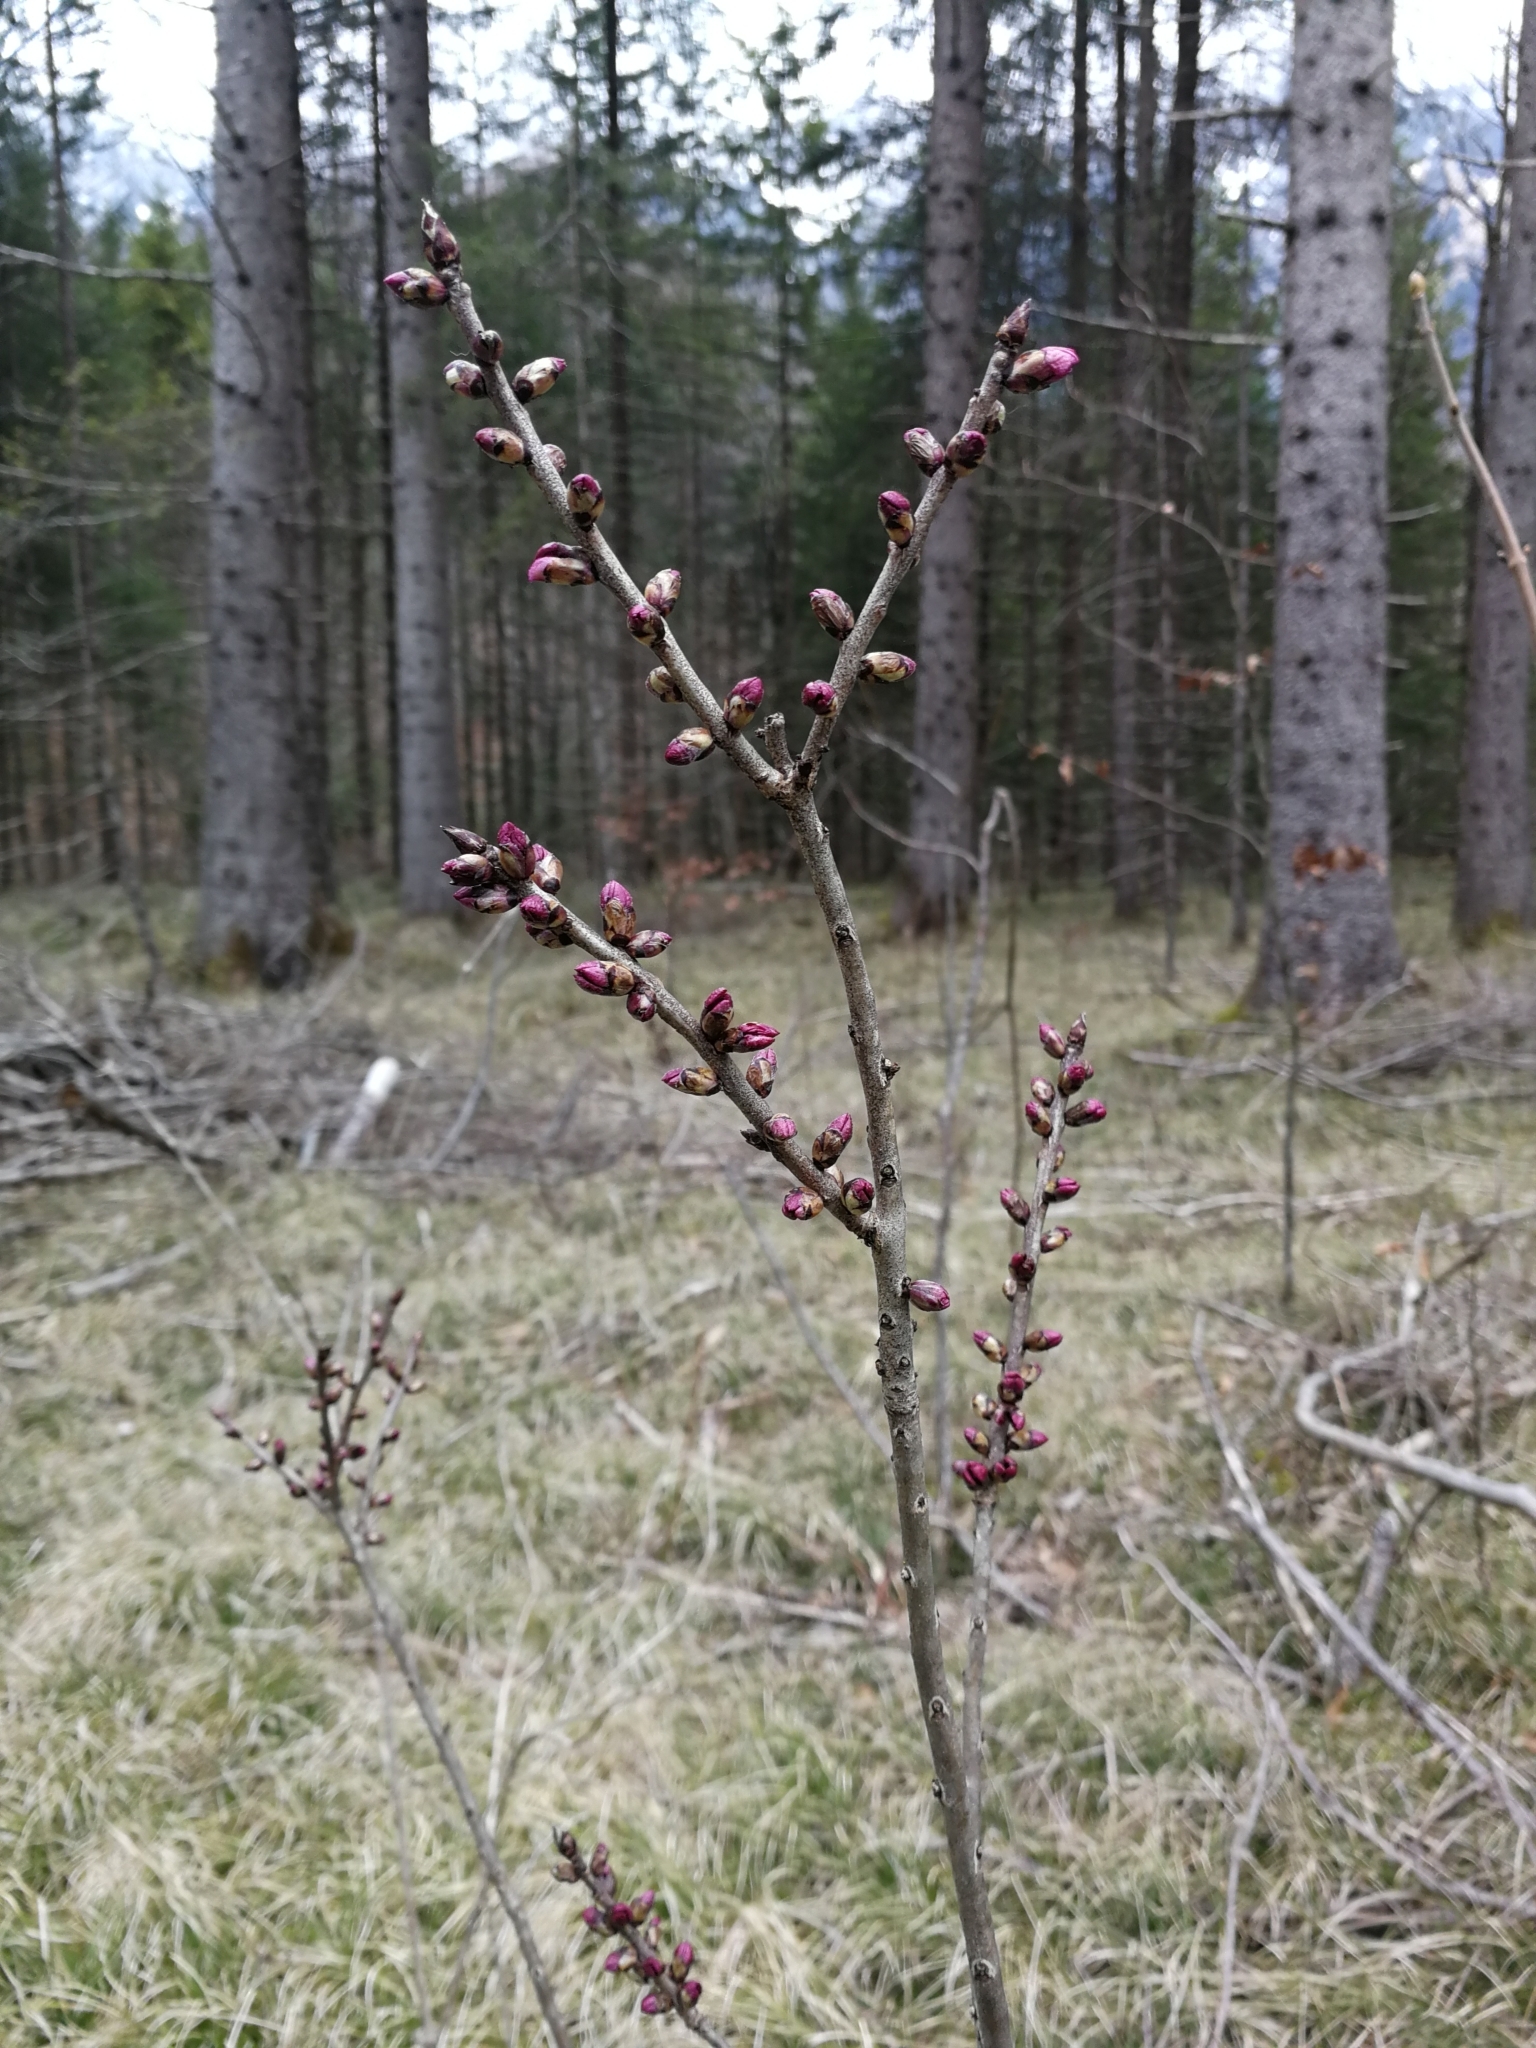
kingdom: Plantae
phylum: Tracheophyta
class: Magnoliopsida
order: Malvales
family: Thymelaeaceae
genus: Daphne
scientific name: Daphne mezereum
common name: Mezereon
